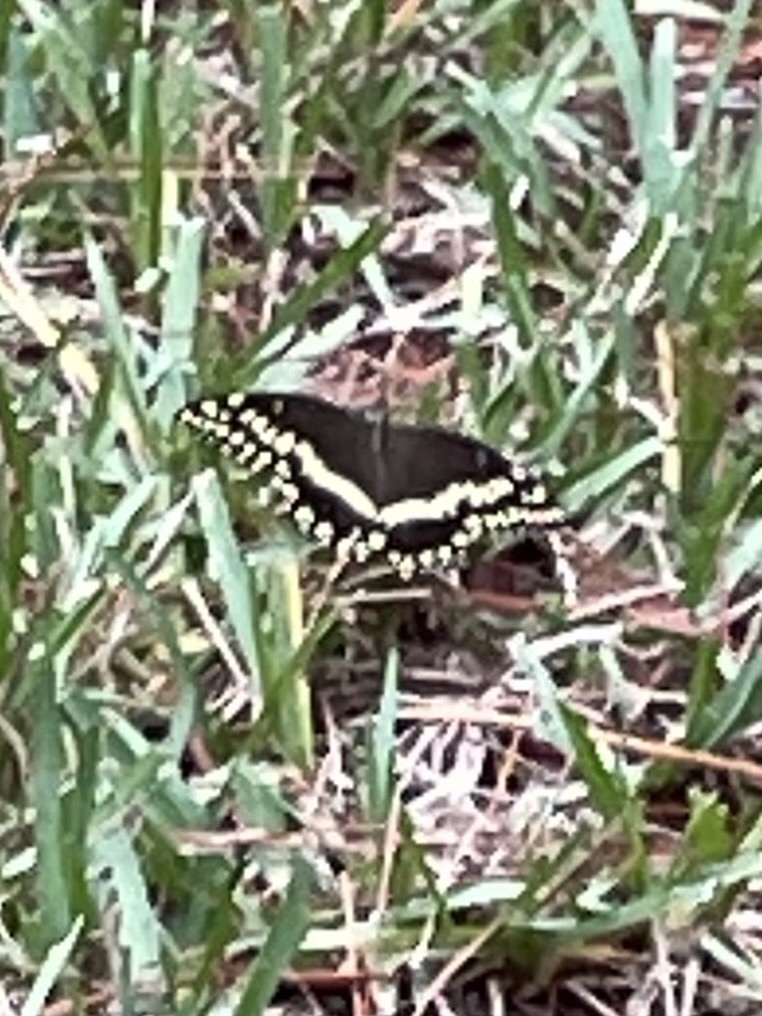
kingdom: Animalia
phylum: Arthropoda
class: Insecta
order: Lepidoptera
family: Papilionidae
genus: Papilio
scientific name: Papilio palamedes
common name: Palamedes swallowtail
